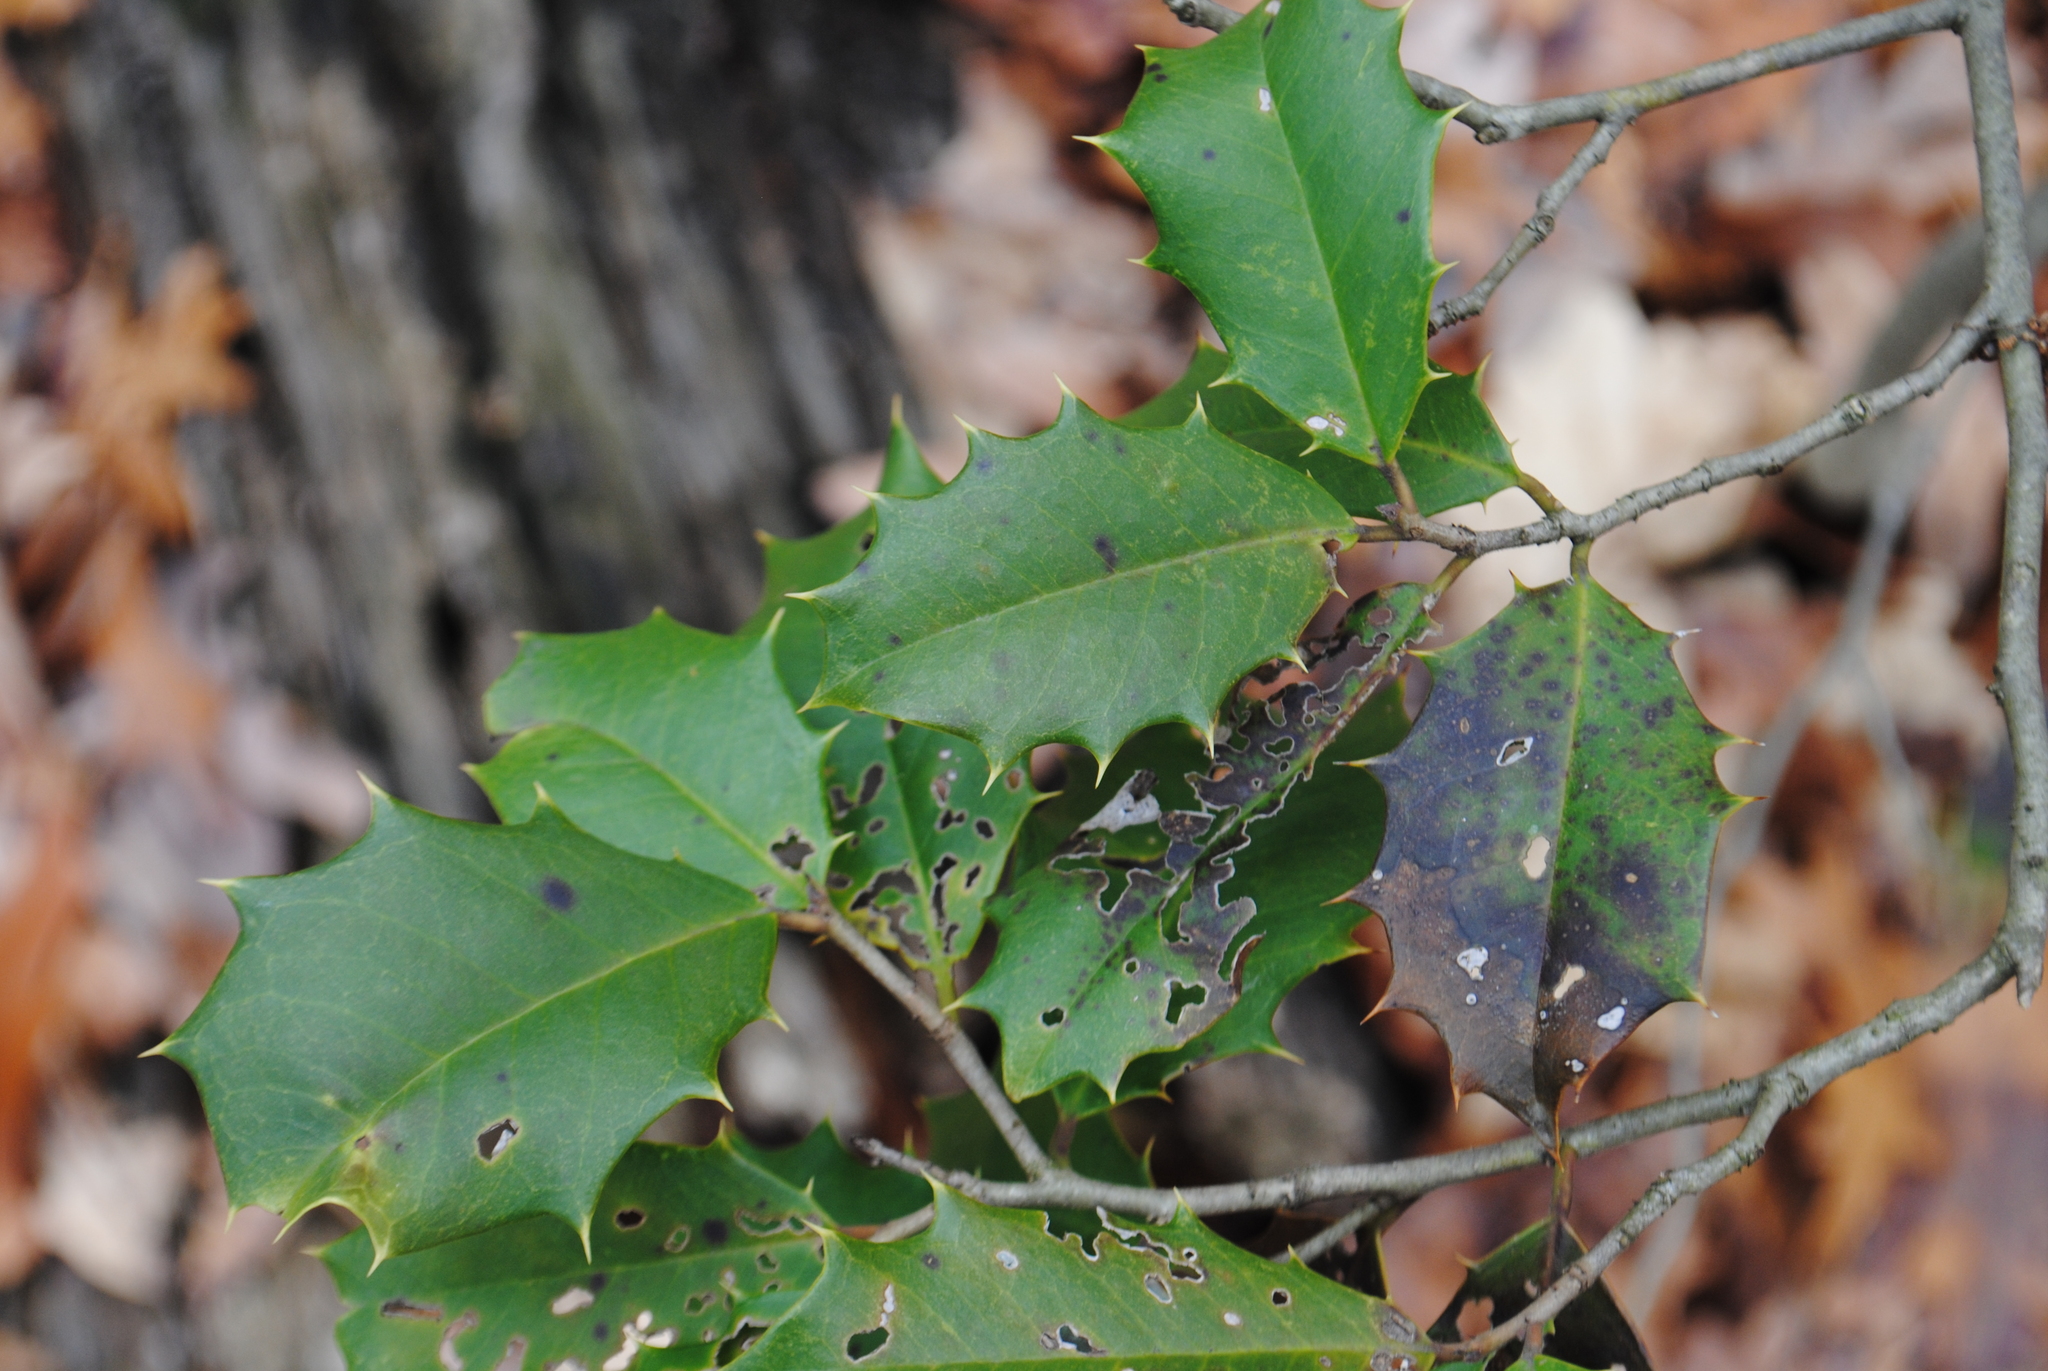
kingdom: Plantae
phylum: Tracheophyta
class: Magnoliopsida
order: Aquifoliales
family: Aquifoliaceae
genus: Ilex
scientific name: Ilex opaca
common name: American holly
